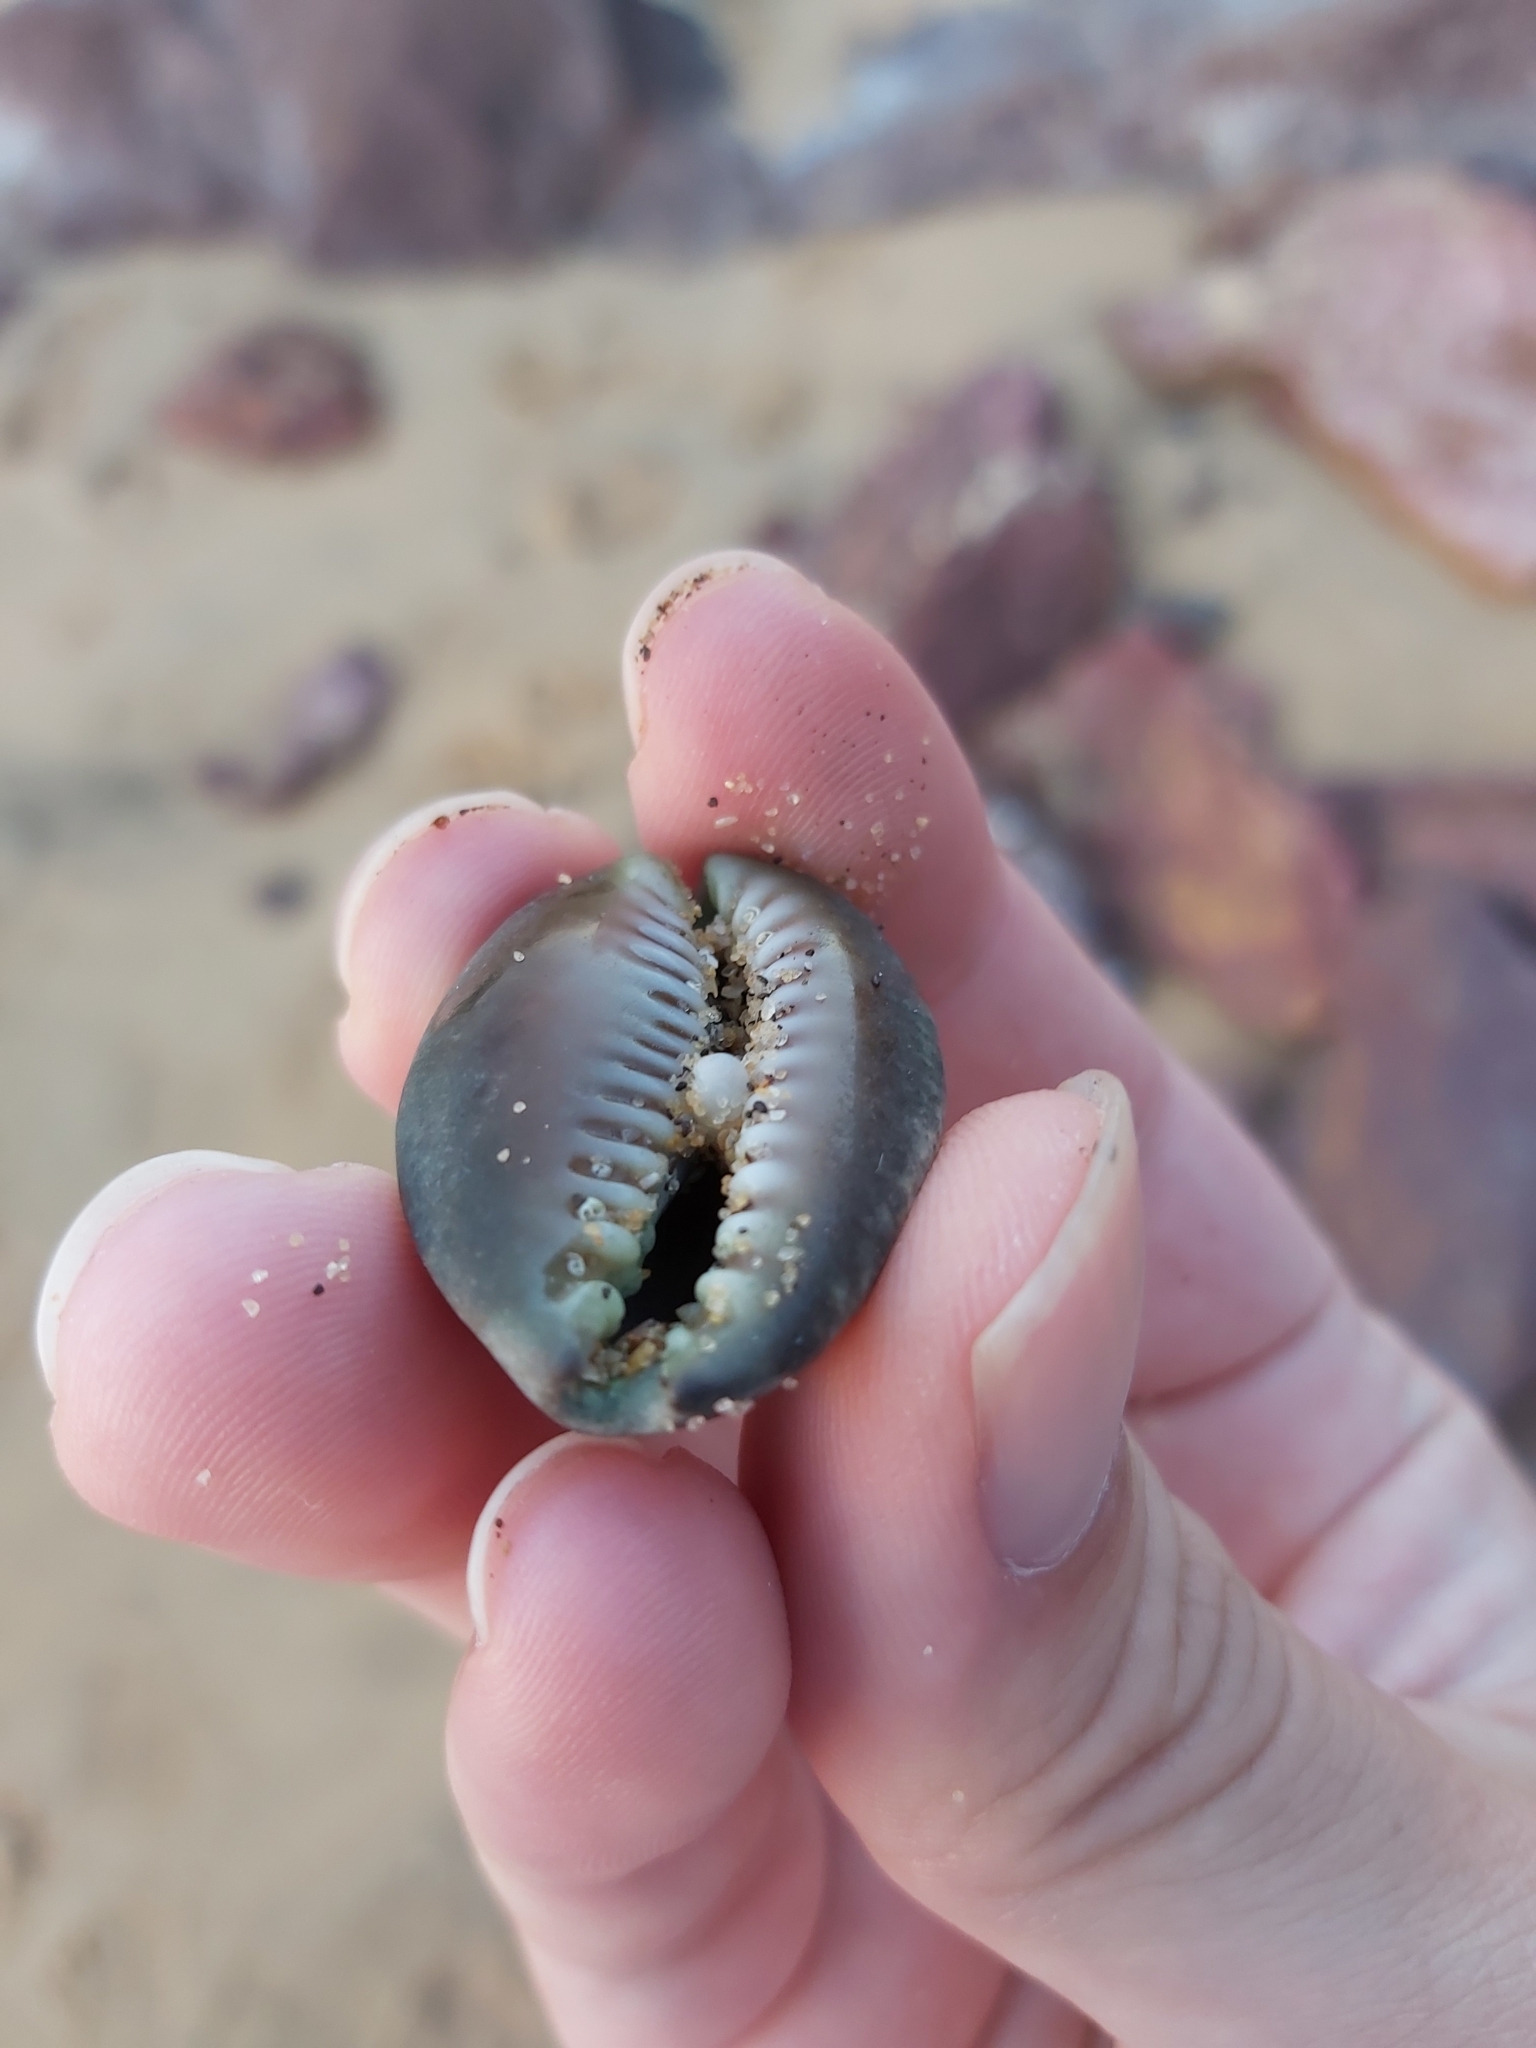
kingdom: Animalia
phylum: Mollusca
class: Gastropoda
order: Littorinimorpha
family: Cypraeidae
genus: Monetaria
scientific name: Monetaria caputserpentis
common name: Serpent's head cowrie
